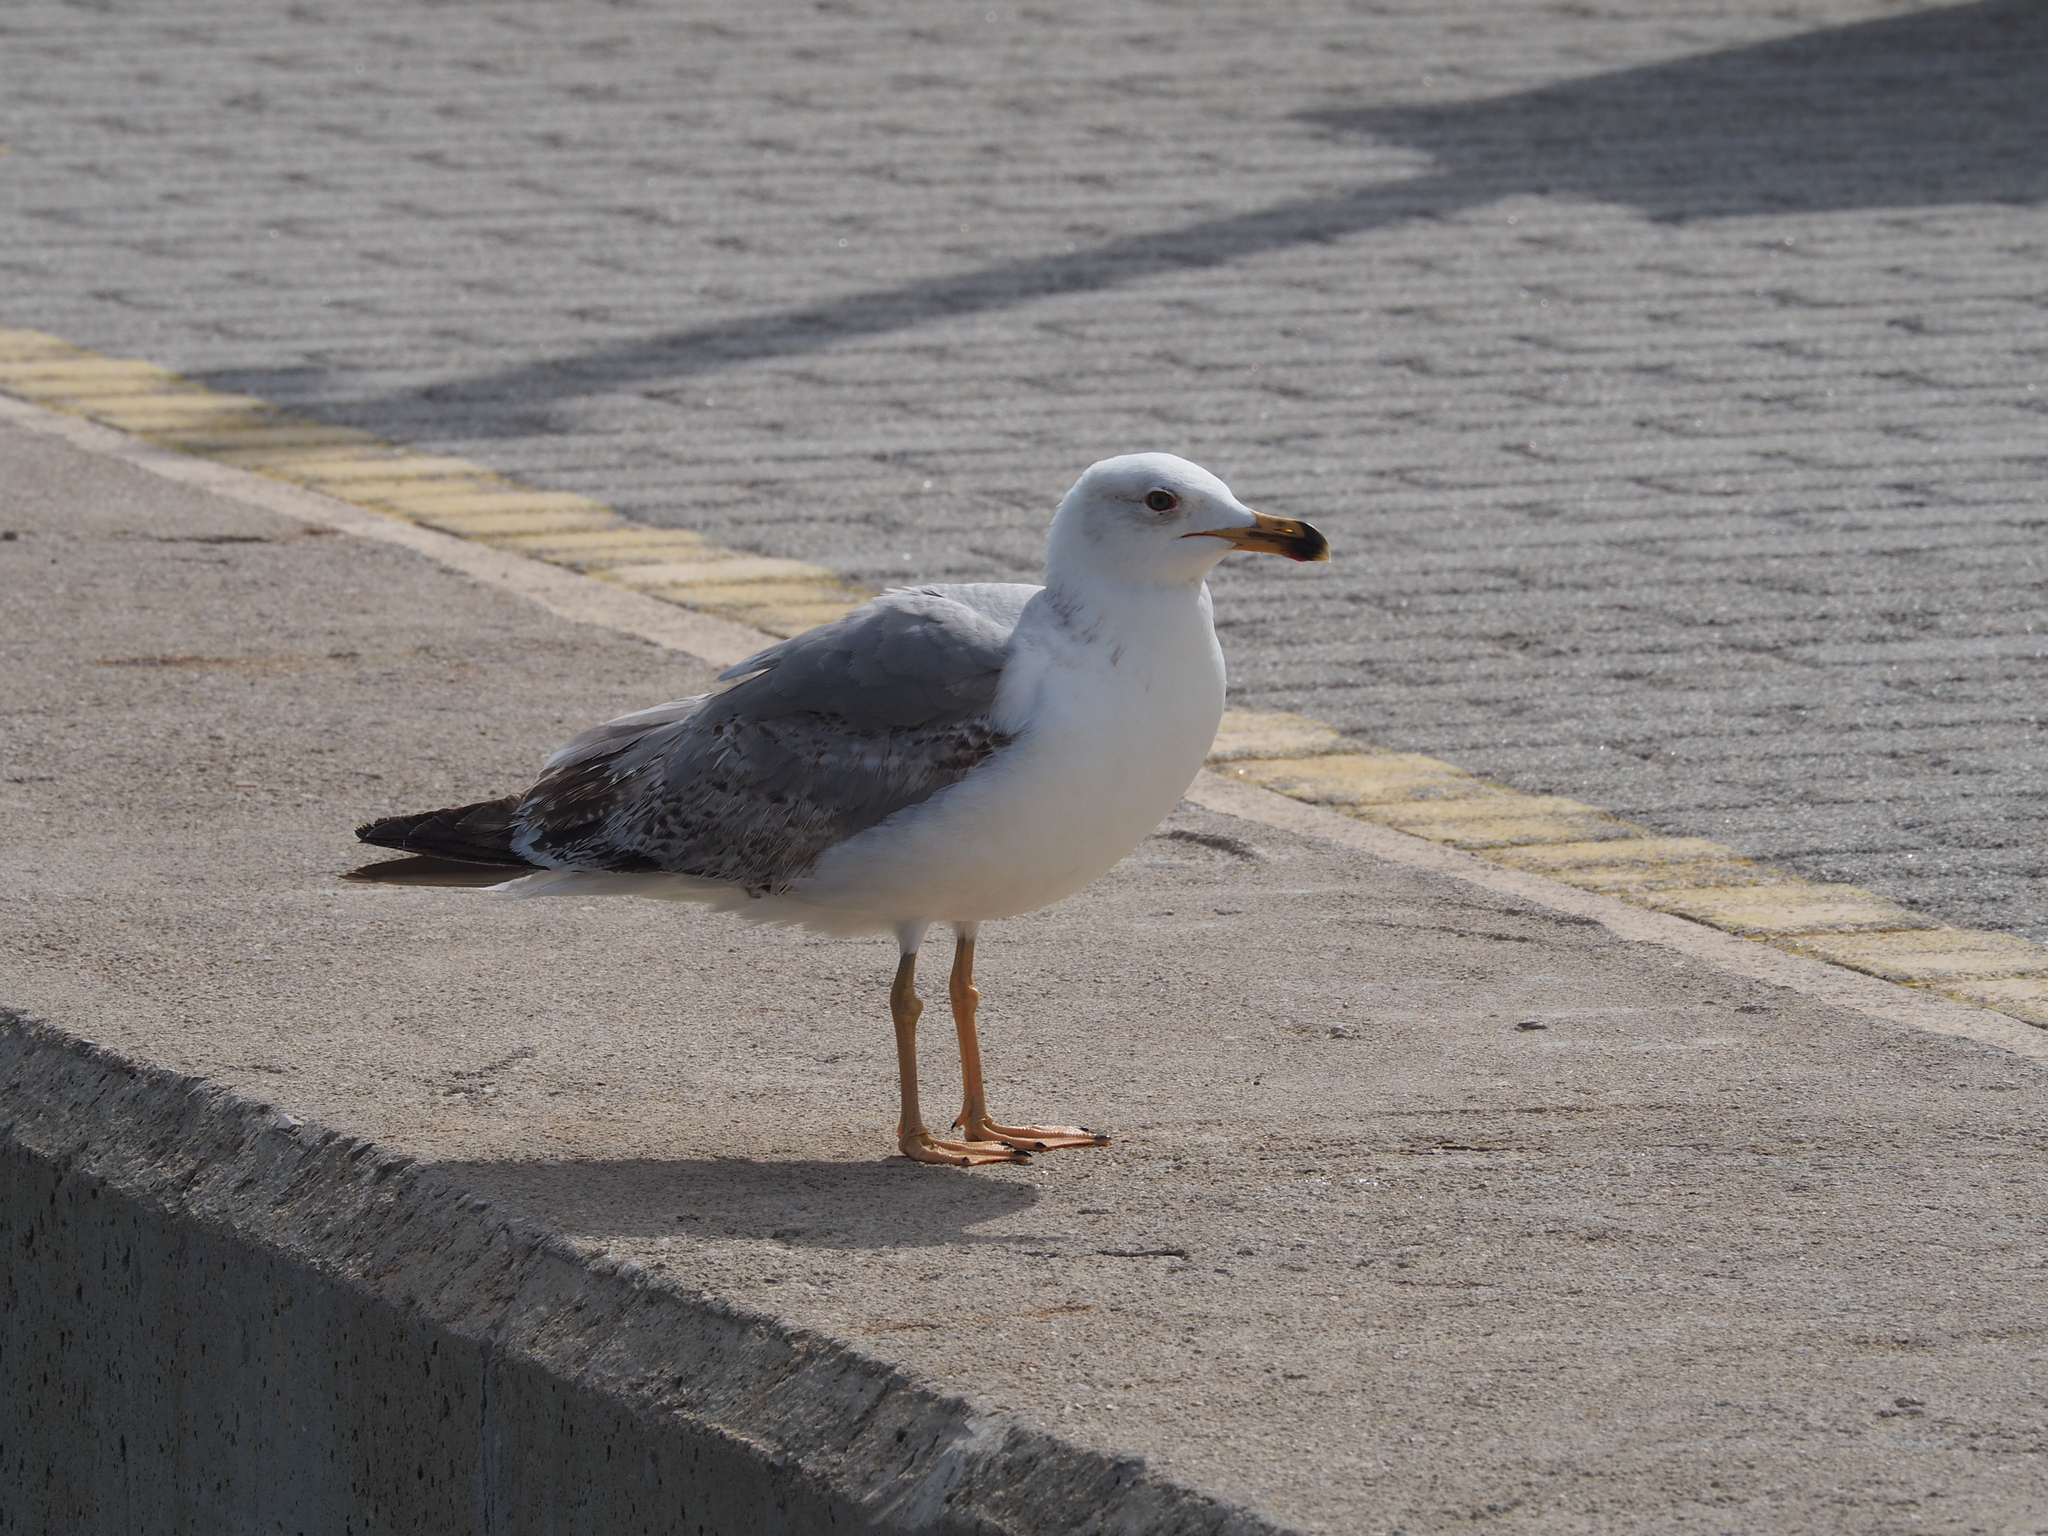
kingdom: Animalia
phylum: Chordata
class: Aves
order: Charadriiformes
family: Laridae
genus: Larus
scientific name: Larus michahellis
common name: Yellow-legged gull
